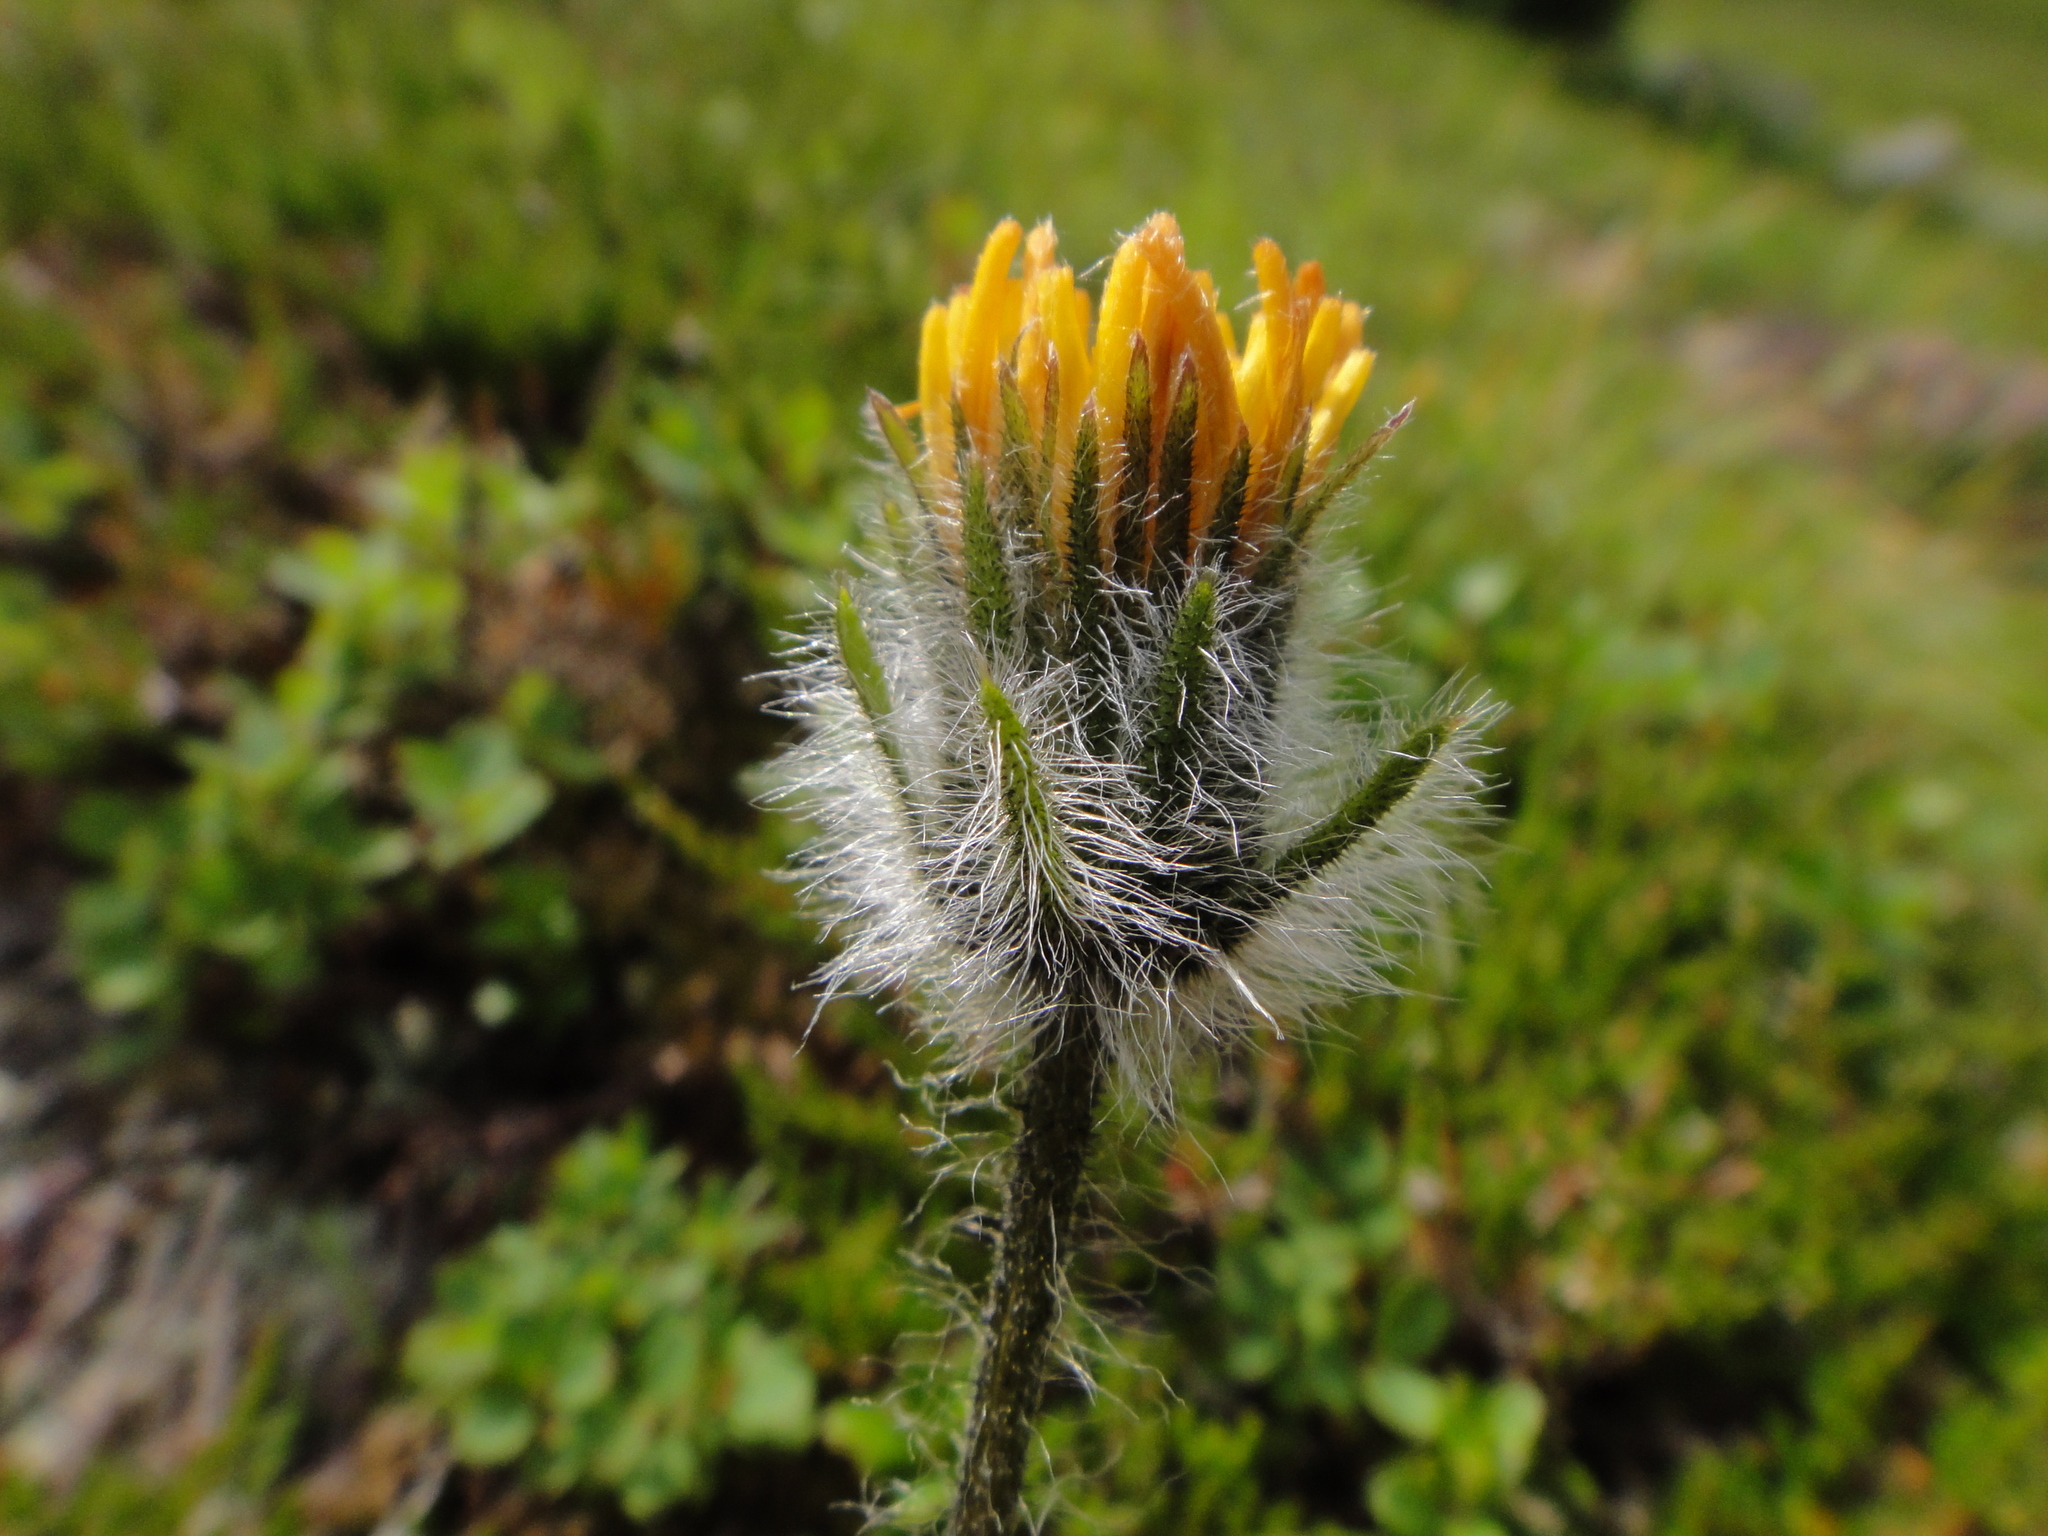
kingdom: Plantae
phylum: Tracheophyta
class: Magnoliopsida
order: Asterales
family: Asteraceae
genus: Hieracium
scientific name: Hieracium alpinum
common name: Alpine hawkweed
